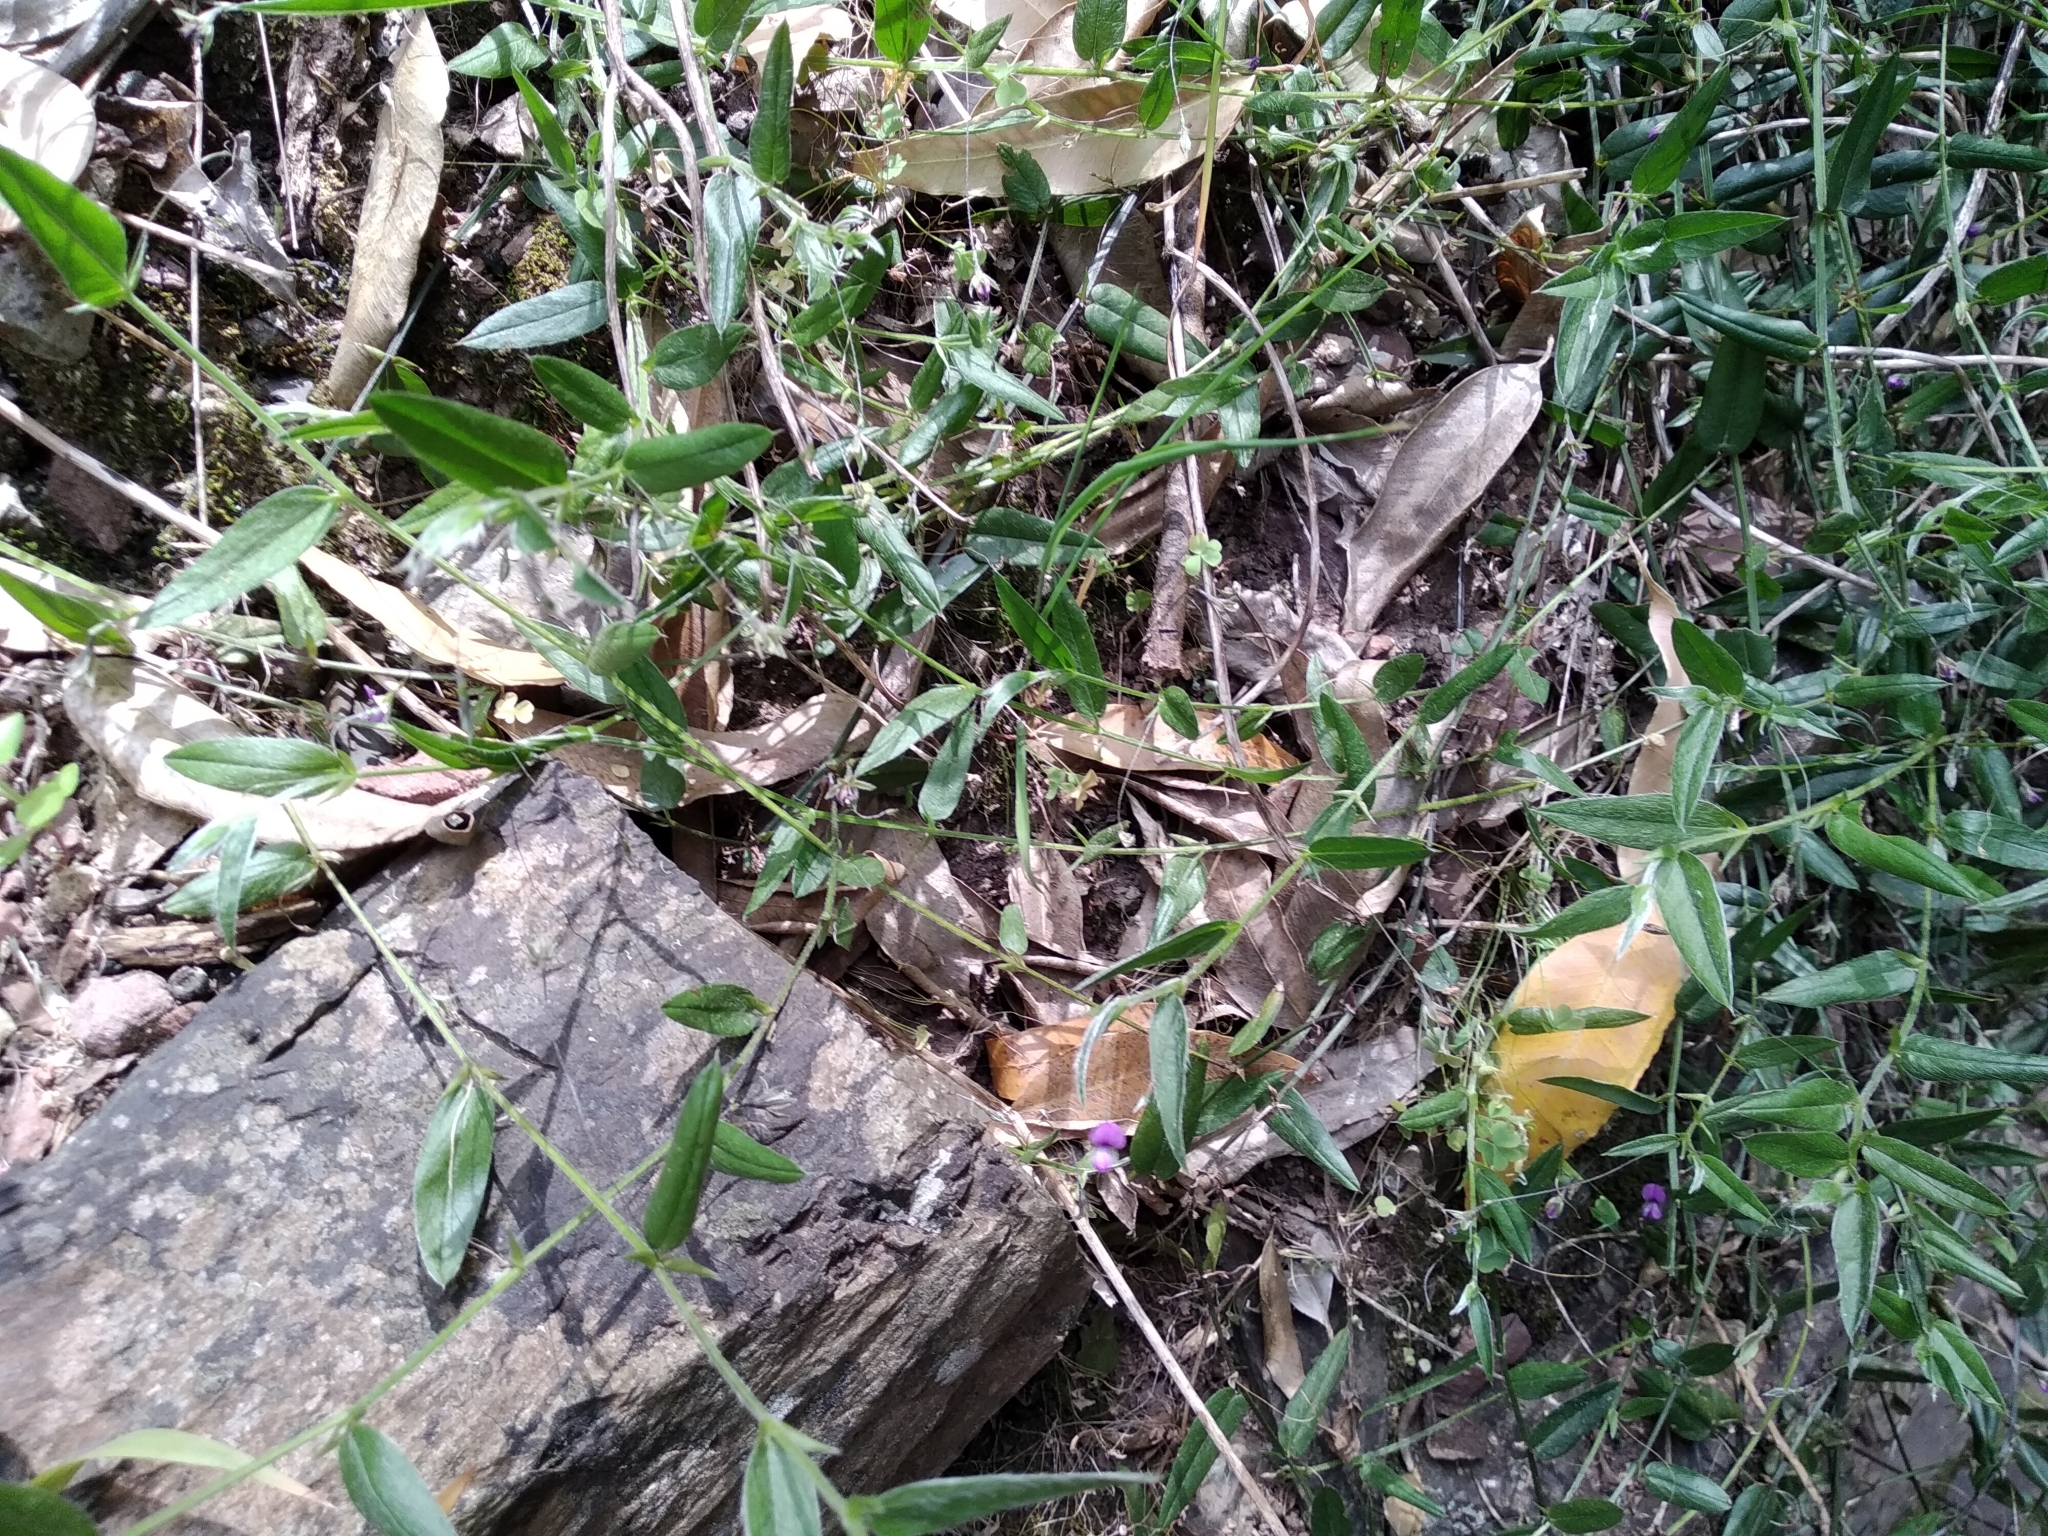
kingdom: Plantae
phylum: Tracheophyta
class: Magnoliopsida
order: Fabales
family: Fabaceae
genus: Psoralea
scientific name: Psoralea monophylla
